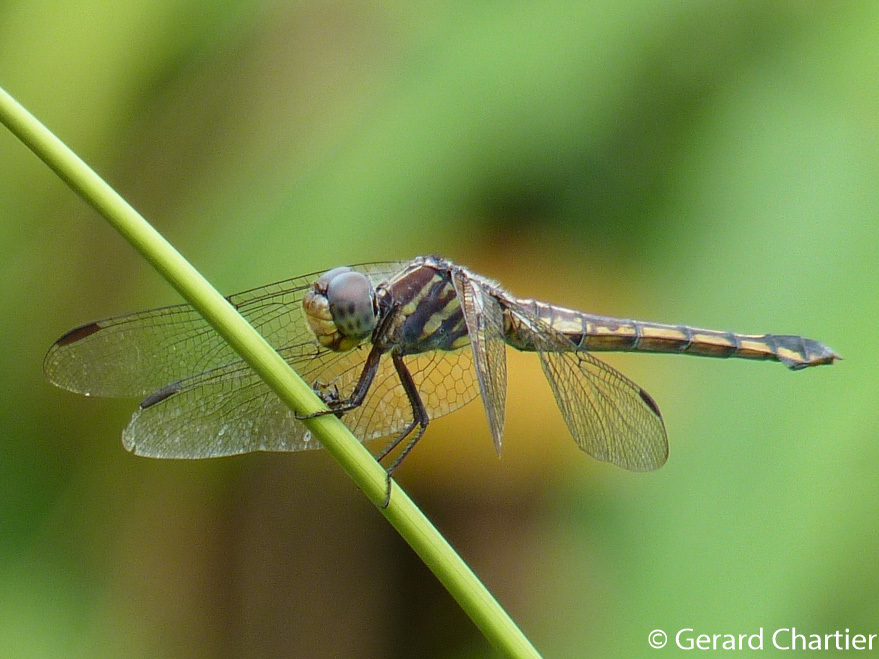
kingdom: Animalia
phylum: Arthropoda
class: Insecta
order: Odonata
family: Libellulidae
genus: Potamarcha
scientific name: Potamarcha congener
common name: Blue chaser
